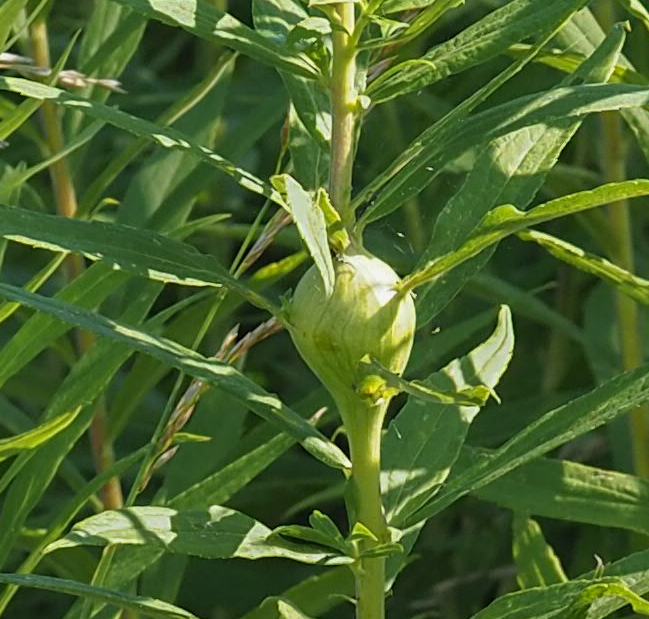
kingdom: Animalia
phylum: Arthropoda
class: Insecta
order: Diptera
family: Tephritidae
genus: Eurosta
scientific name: Eurosta solidaginis
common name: Goldenrod gall fly
